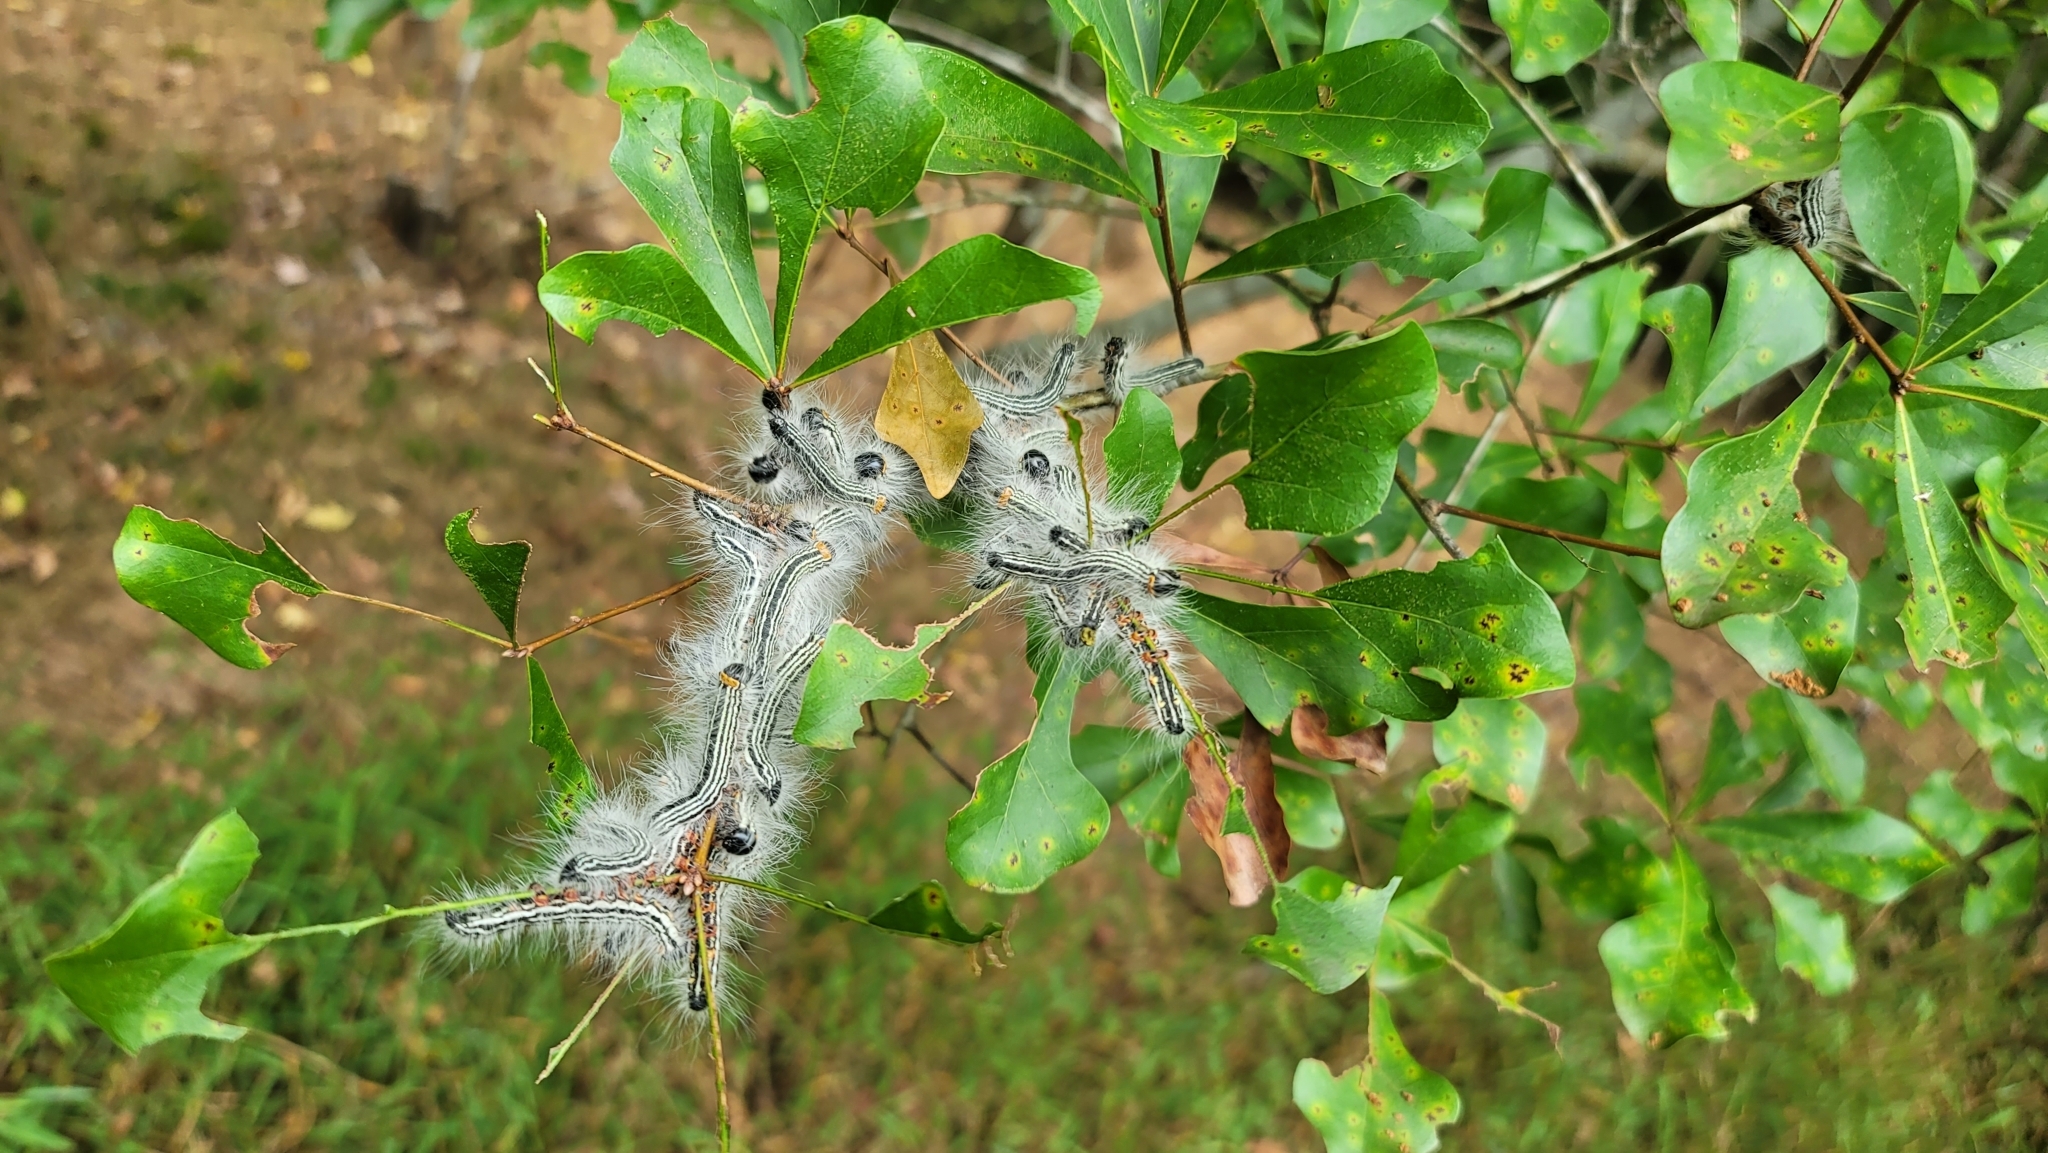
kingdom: Animalia
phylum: Arthropoda
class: Insecta
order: Lepidoptera
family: Notodontidae
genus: Datana
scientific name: Datana contracta
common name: Contracted datana
